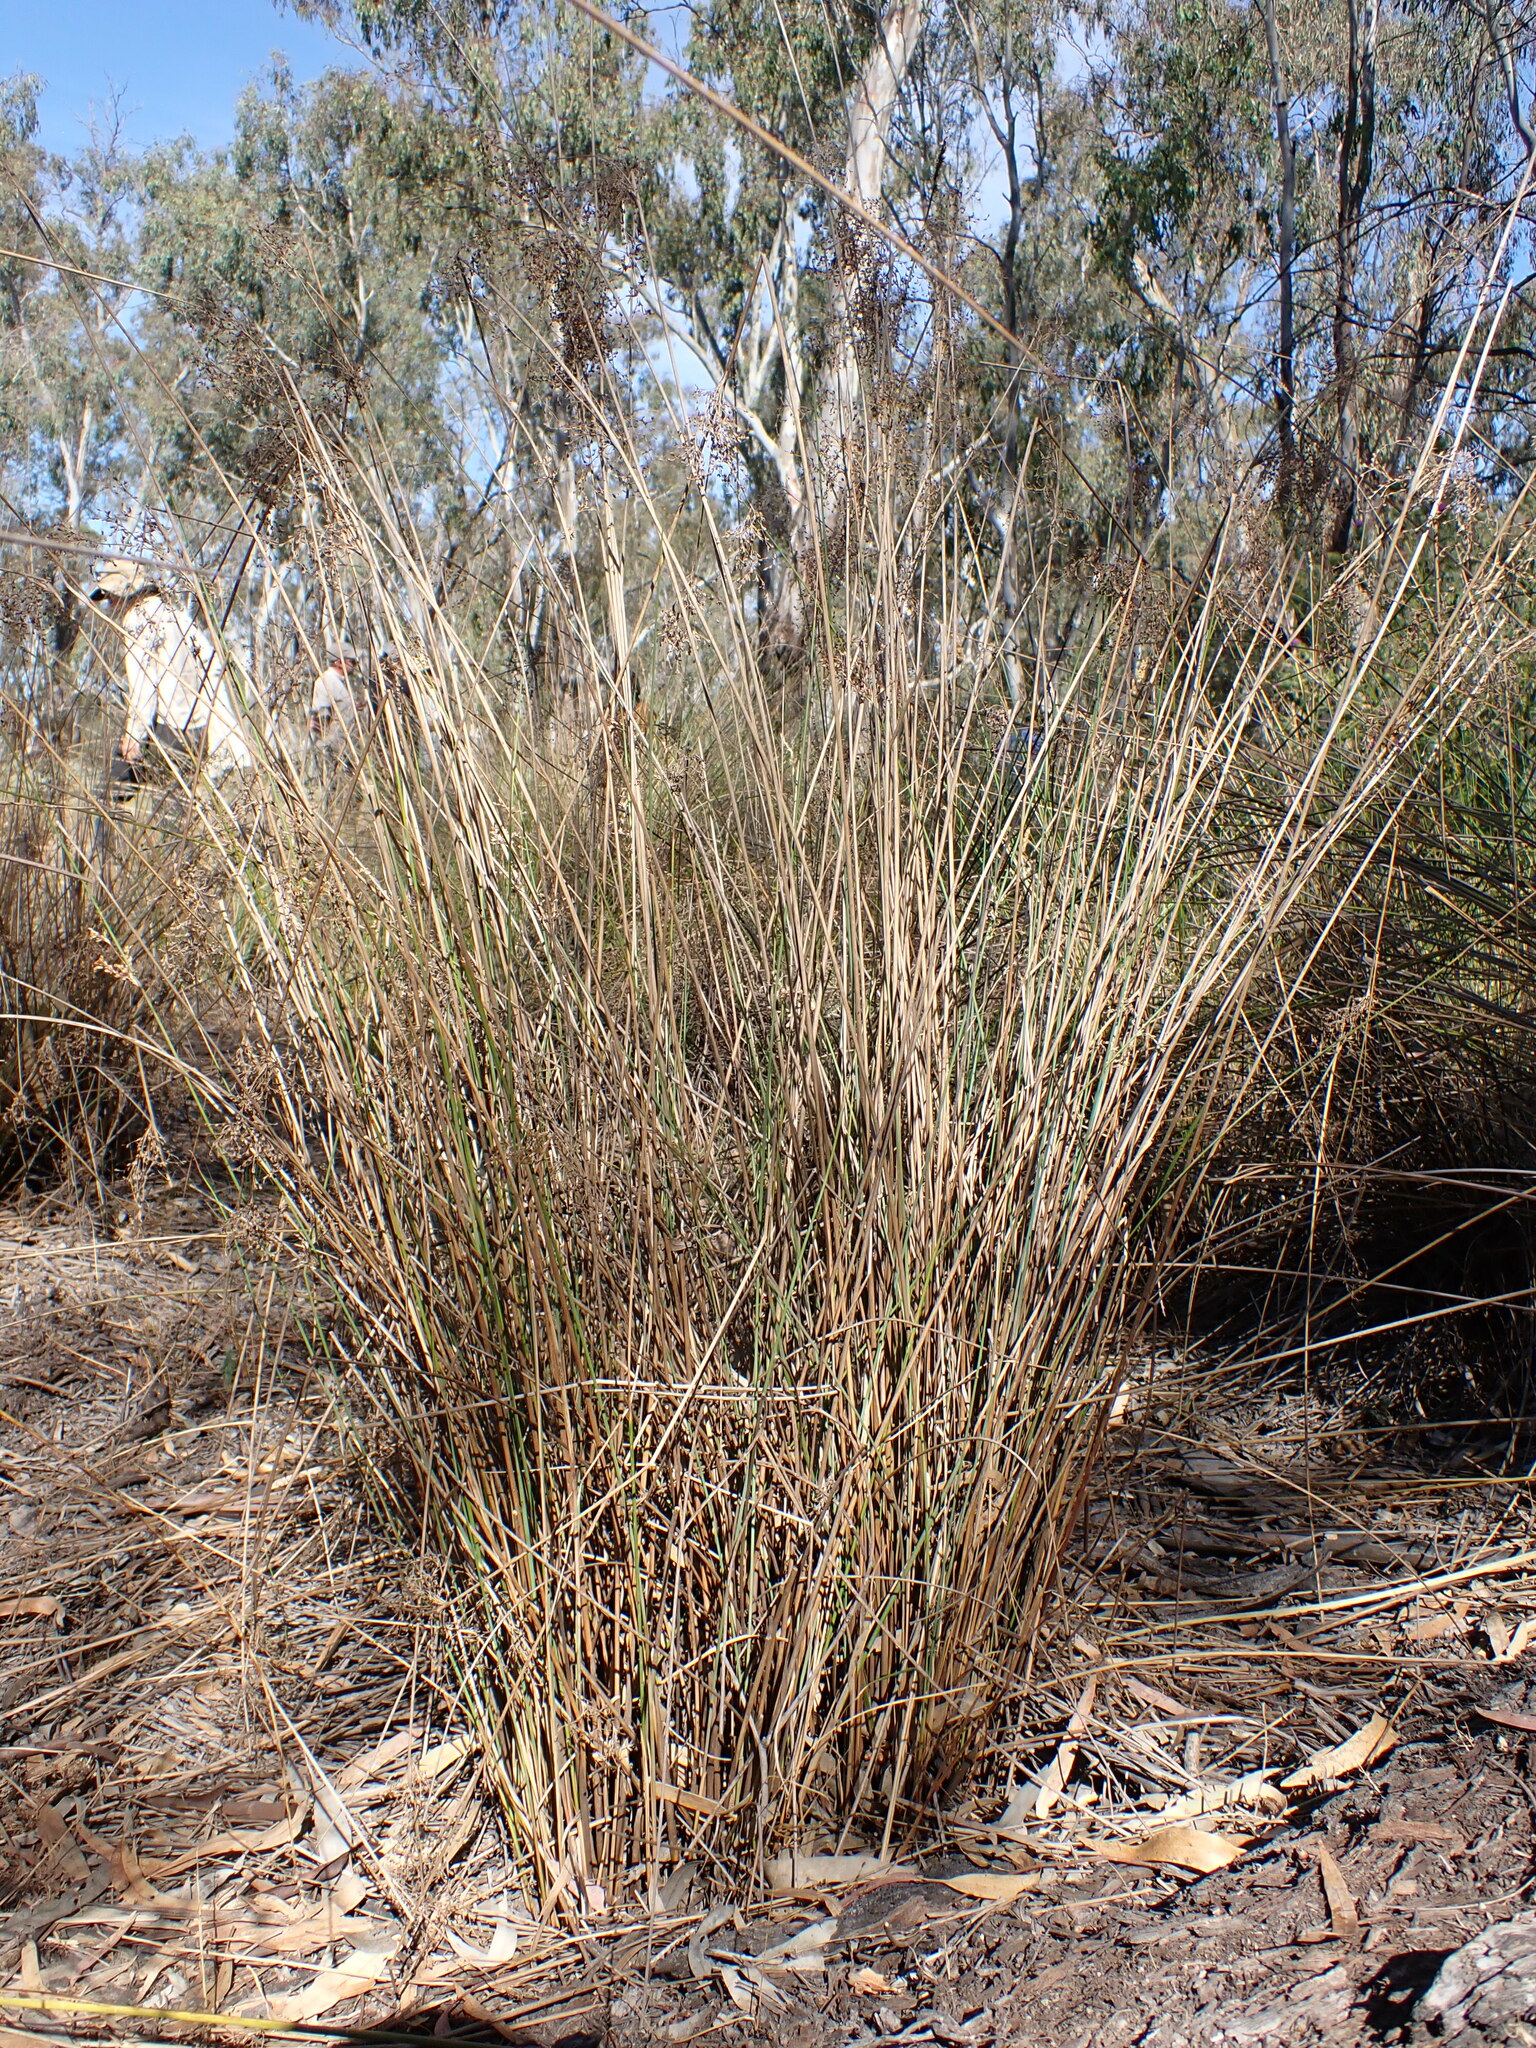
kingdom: Plantae
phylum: Tracheophyta
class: Liliopsida
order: Poales
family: Juncaceae
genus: Juncus
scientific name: Juncus aridicola
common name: Tussock rush
